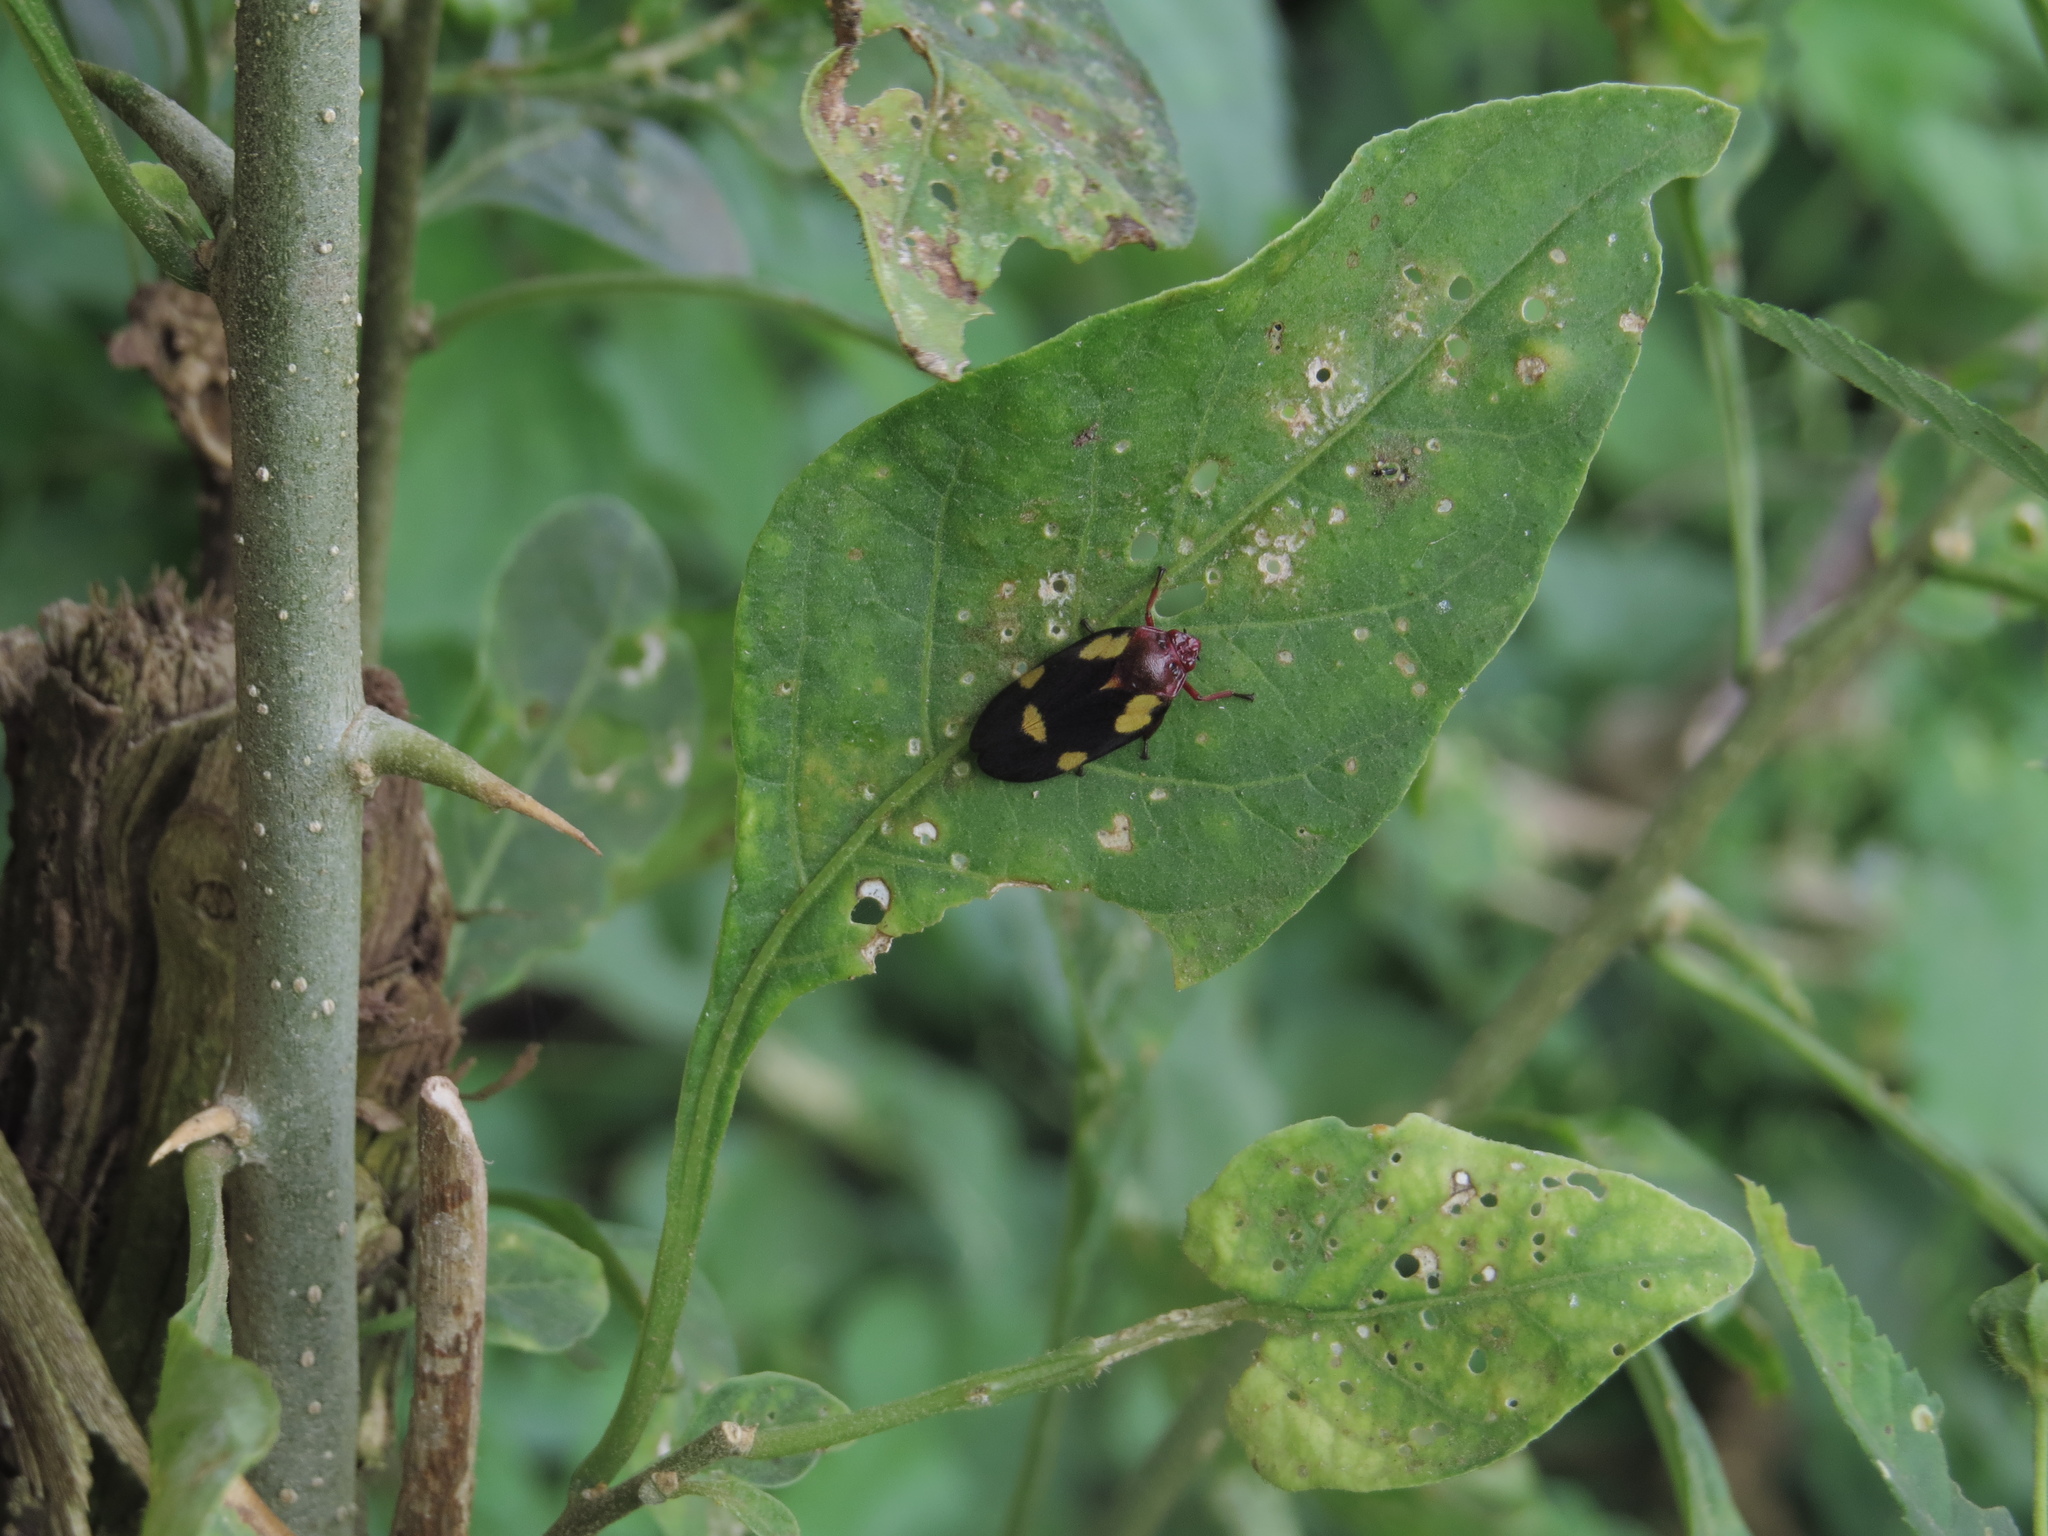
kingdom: Animalia
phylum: Arthropoda
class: Insecta
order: Hemiptera
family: Cercopidae
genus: Sphenorhina
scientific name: Sphenorhina limbata
